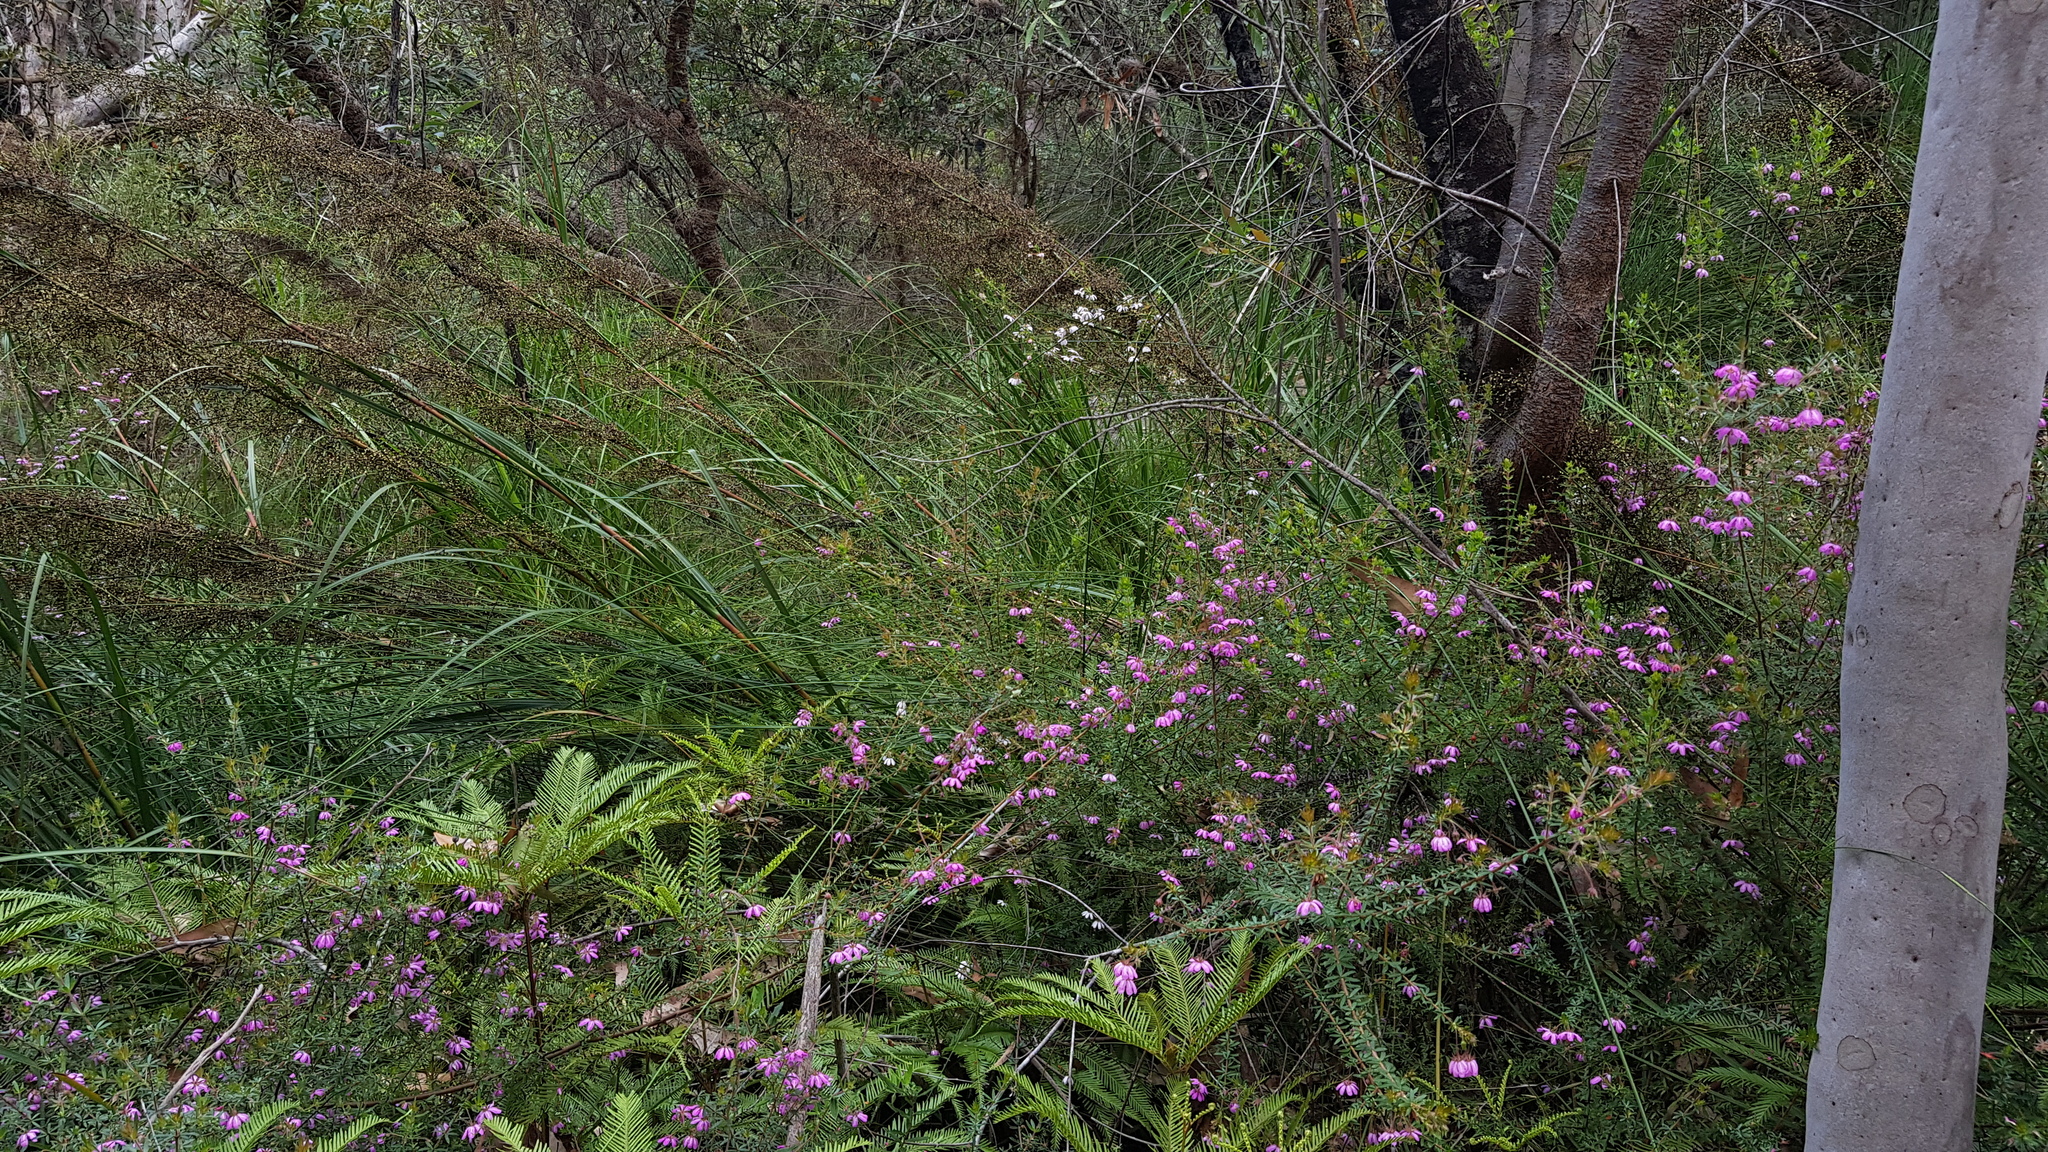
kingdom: Plantae
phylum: Tracheophyta
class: Magnoliopsida
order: Oxalidales
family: Cunoniaceae
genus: Bauera
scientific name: Bauera rubioides
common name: River-rose
